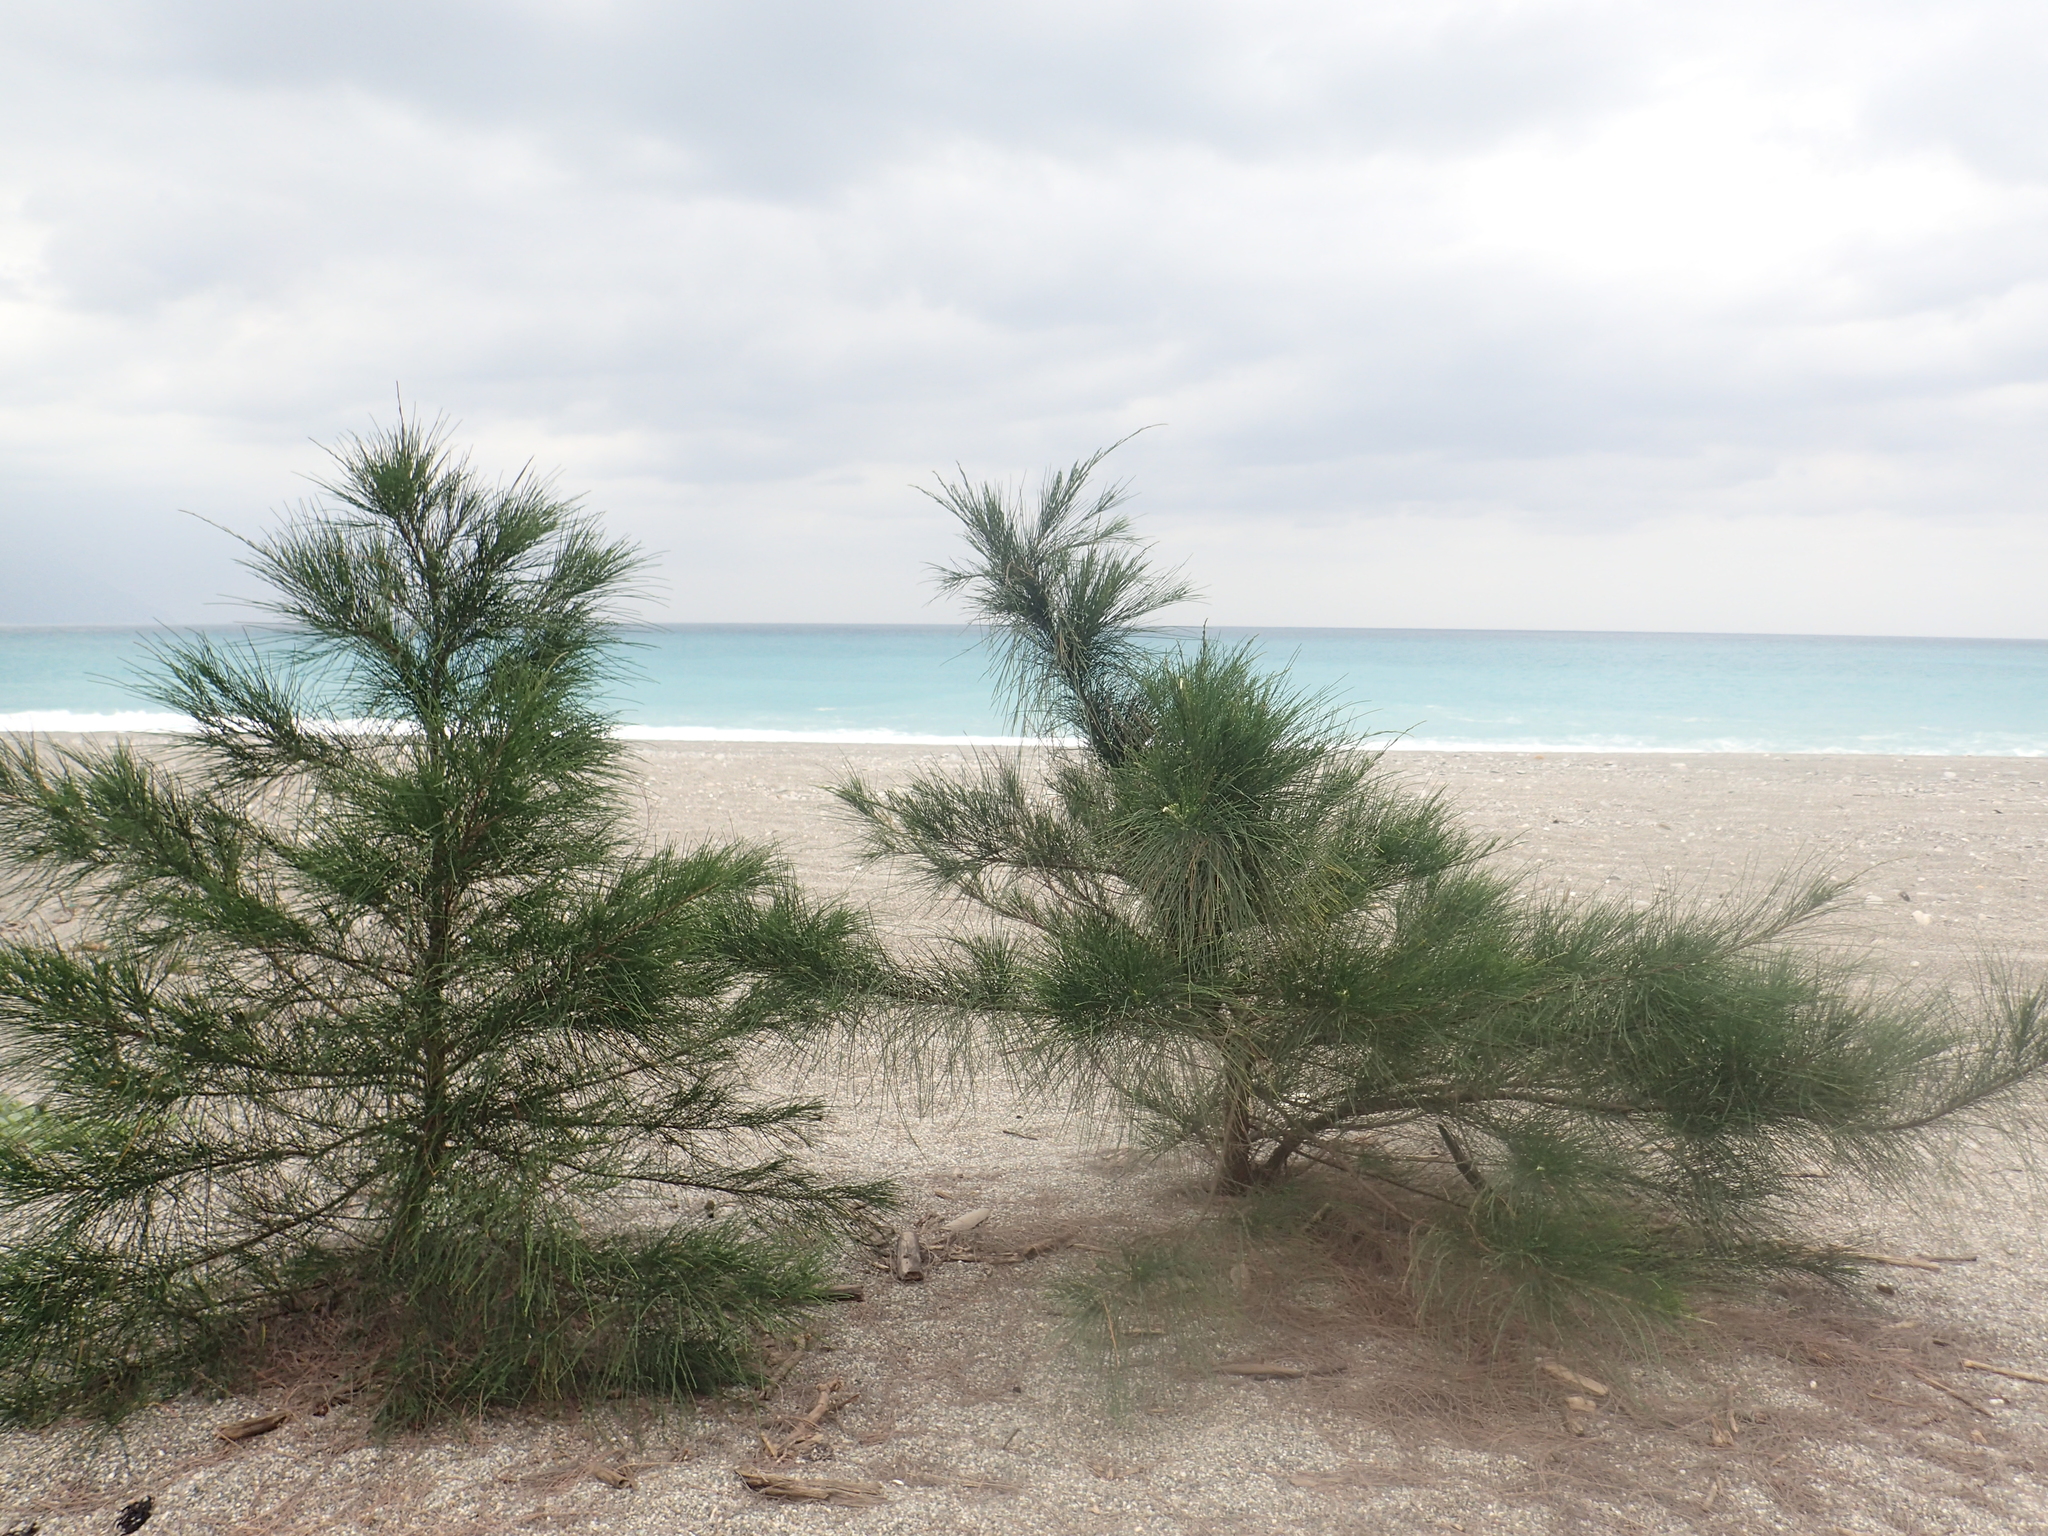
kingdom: Plantae
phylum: Tracheophyta
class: Magnoliopsida
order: Fagales
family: Casuarinaceae
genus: Casuarina
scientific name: Casuarina equisetifolia
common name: Beach sheoak
